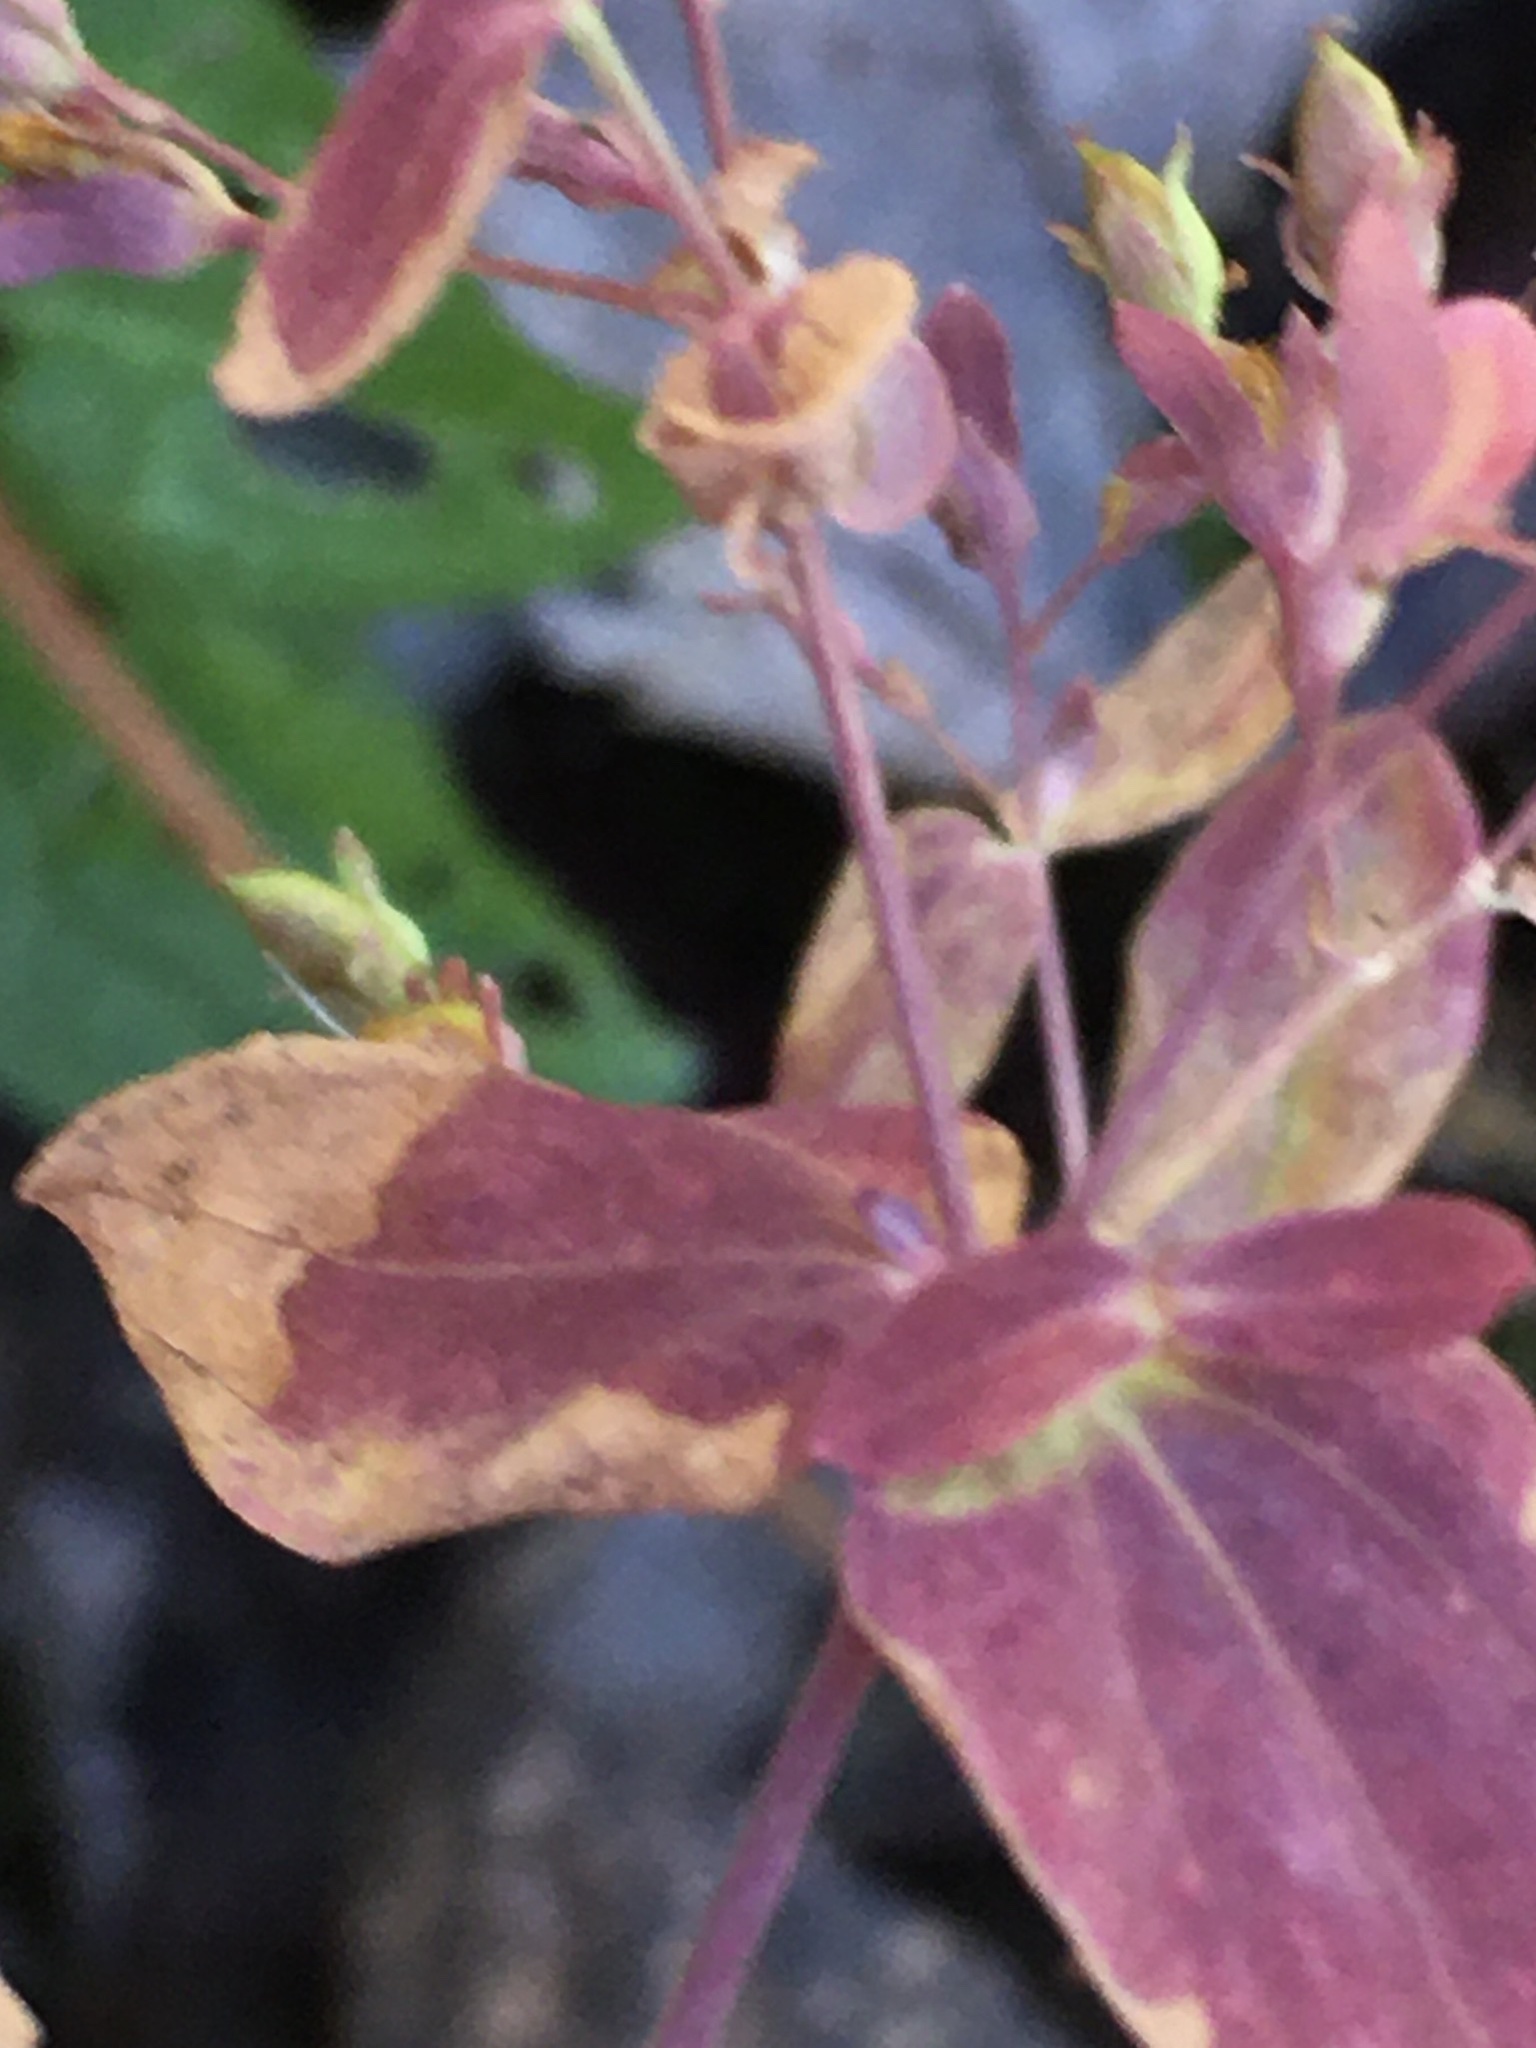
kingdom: Plantae
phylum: Tracheophyta
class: Magnoliopsida
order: Malpighiales
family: Hypericaceae
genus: Hypericum
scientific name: Hypericum mutilum
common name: Dwarf st. john's-wort
